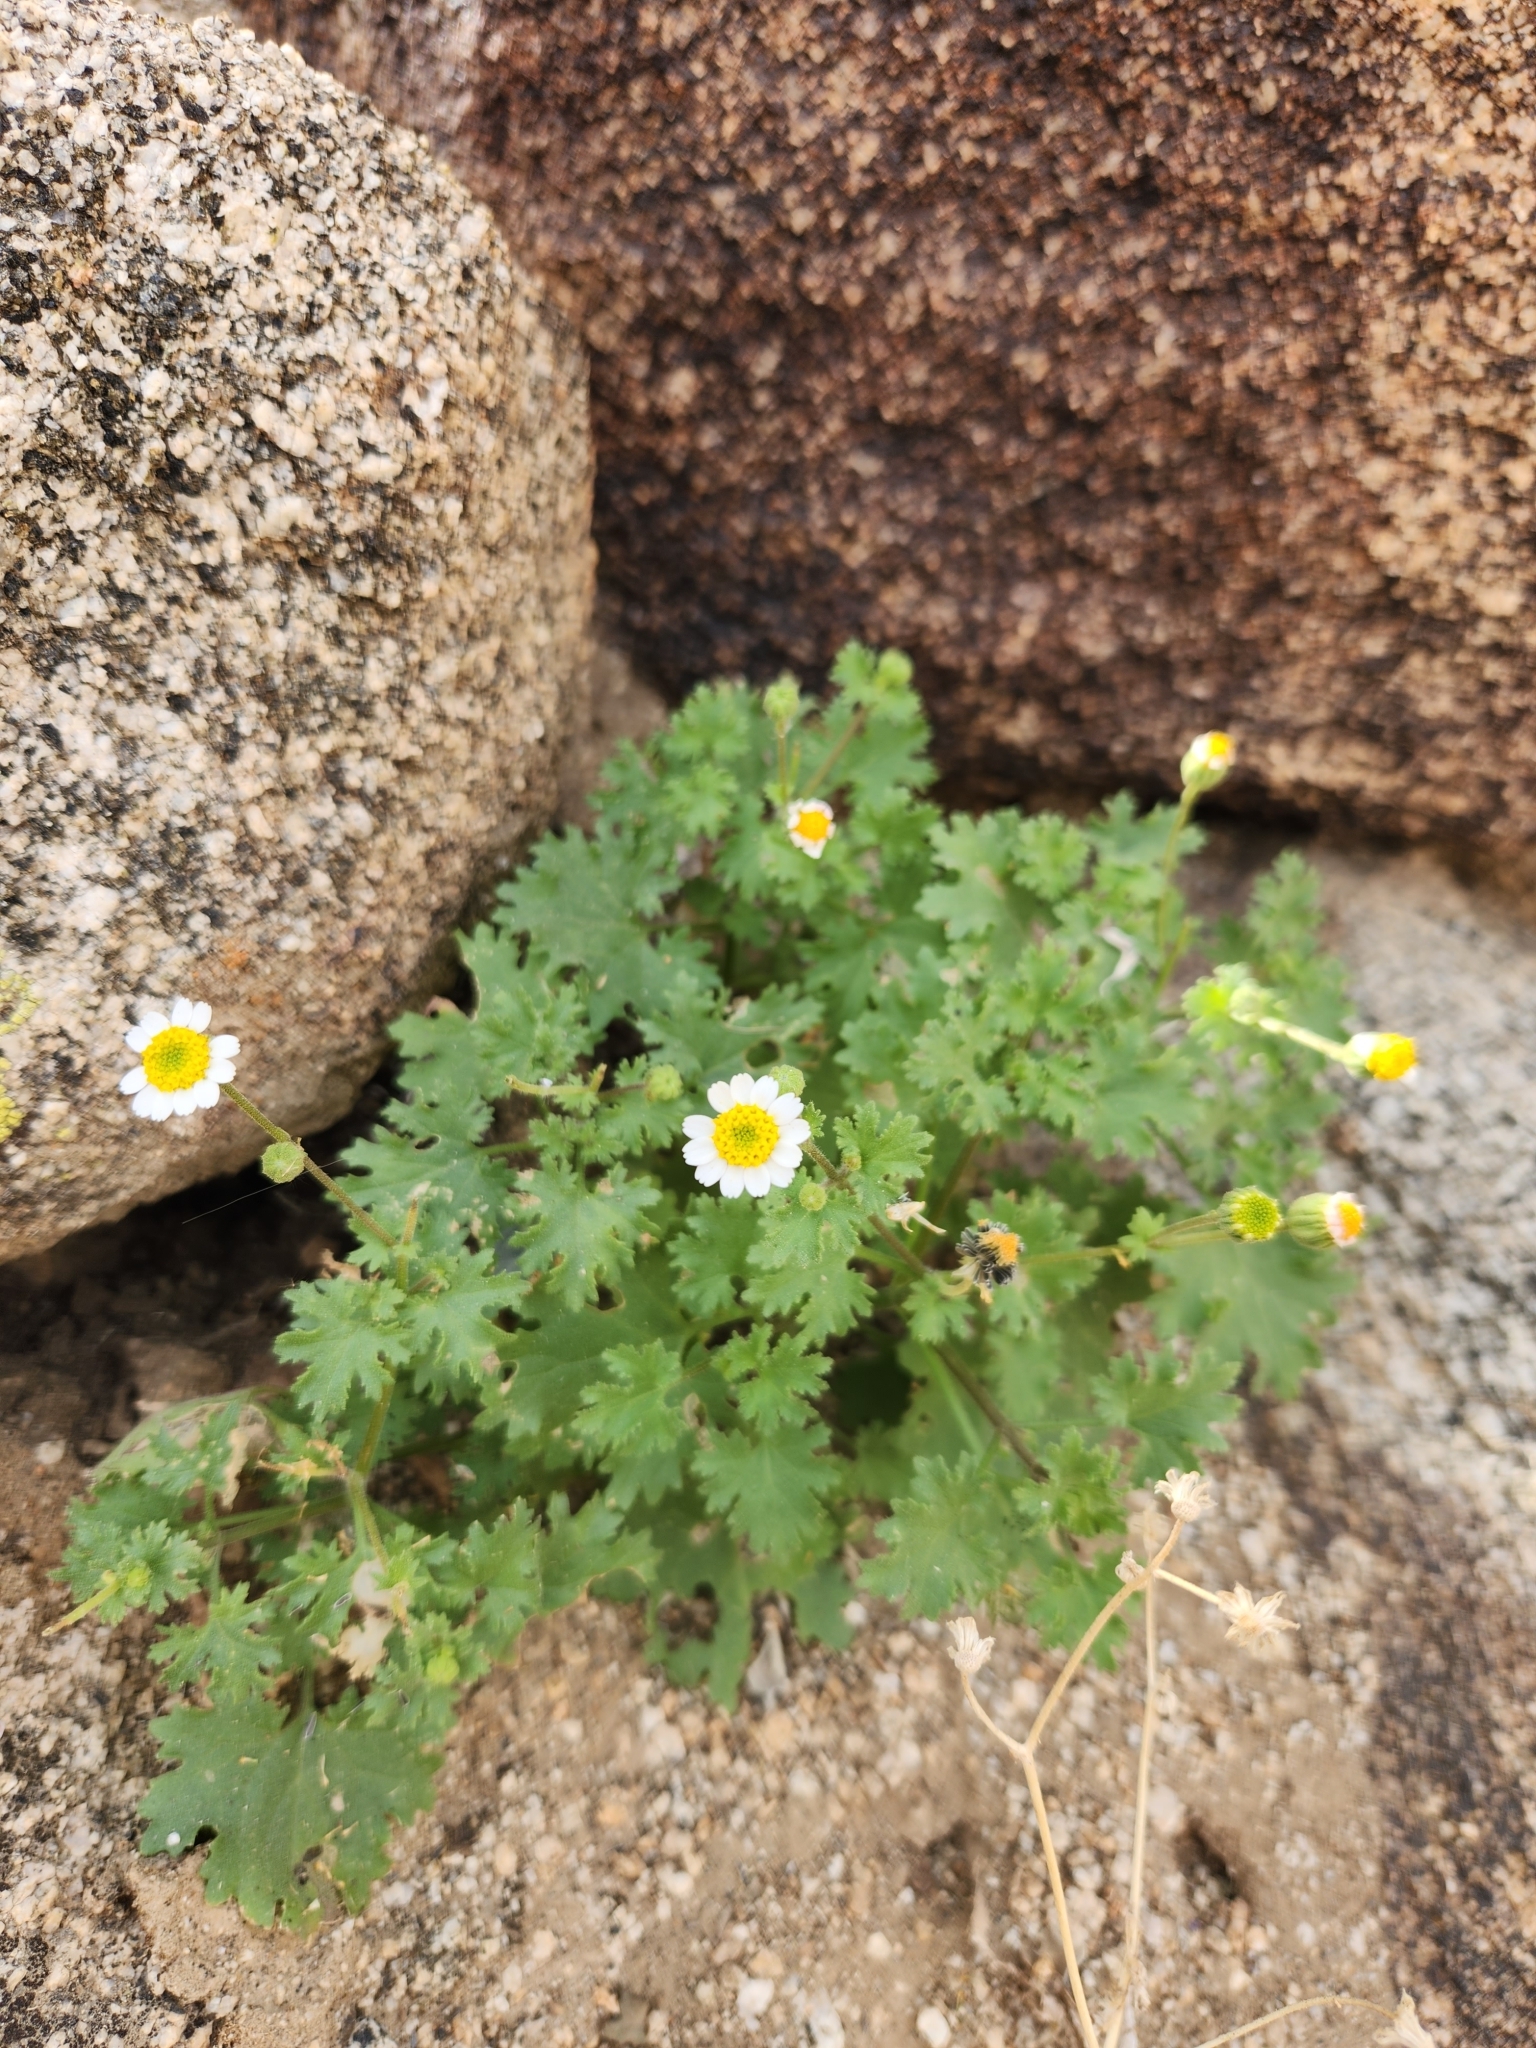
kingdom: Plantae
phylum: Tracheophyta
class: Magnoliopsida
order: Asterales
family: Asteraceae
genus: Laphamia
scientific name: Laphamia emoryi
